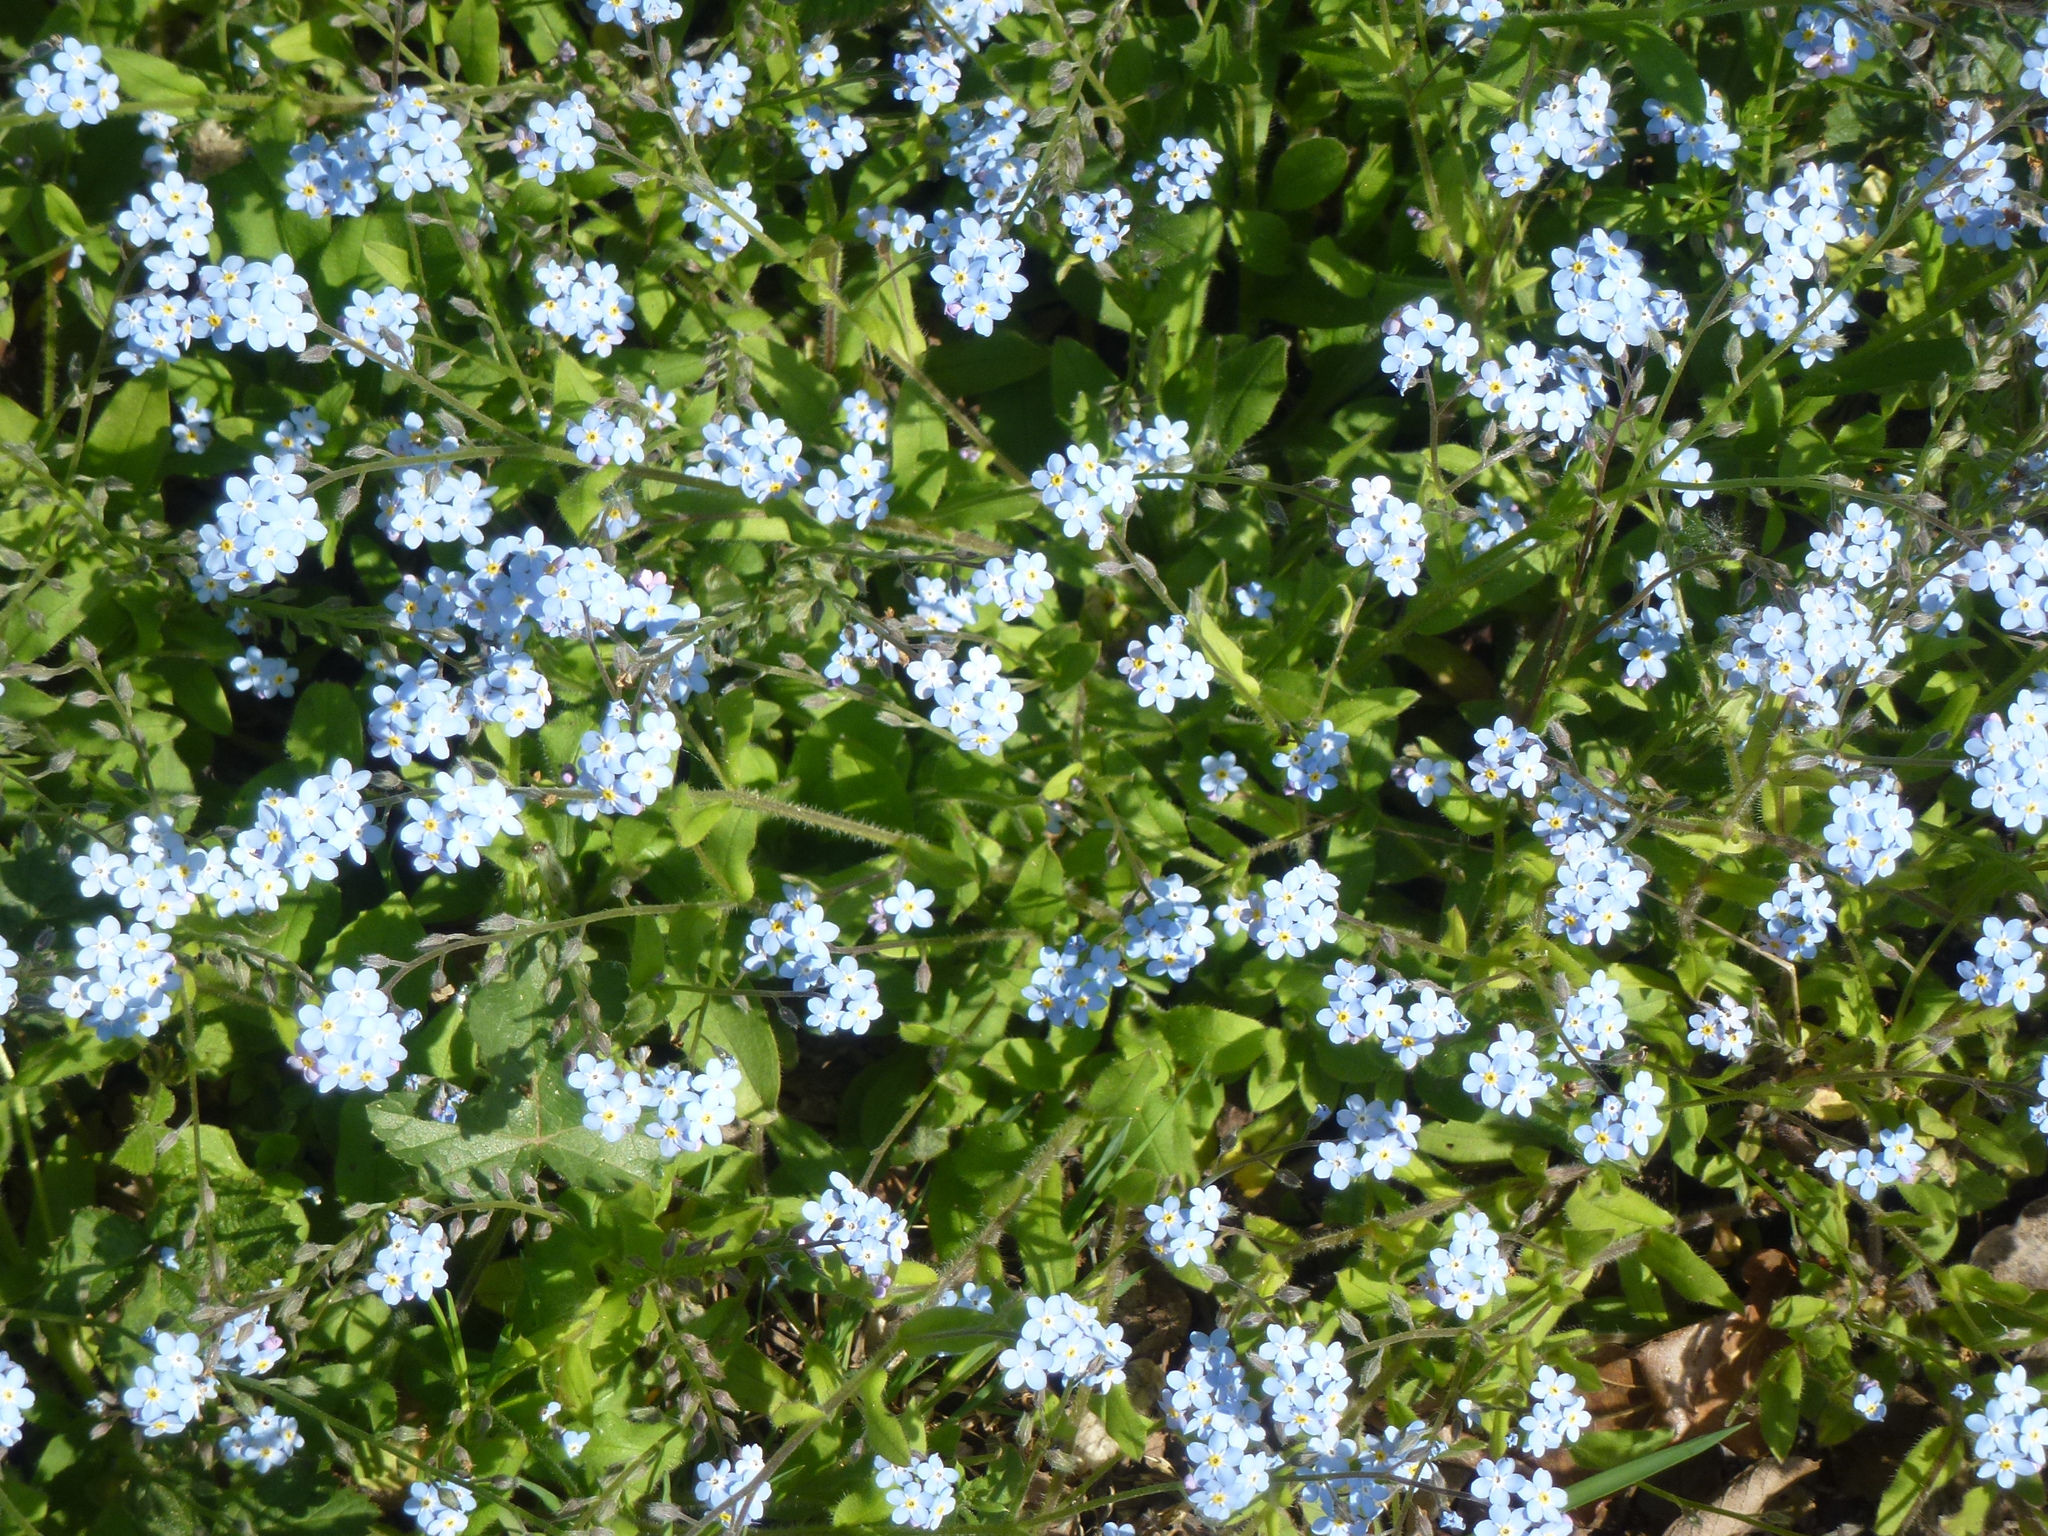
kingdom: Plantae
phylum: Tracheophyta
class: Magnoliopsida
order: Boraginales
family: Boraginaceae
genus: Myosotis
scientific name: Myosotis sylvatica
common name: Wood forget-me-not
